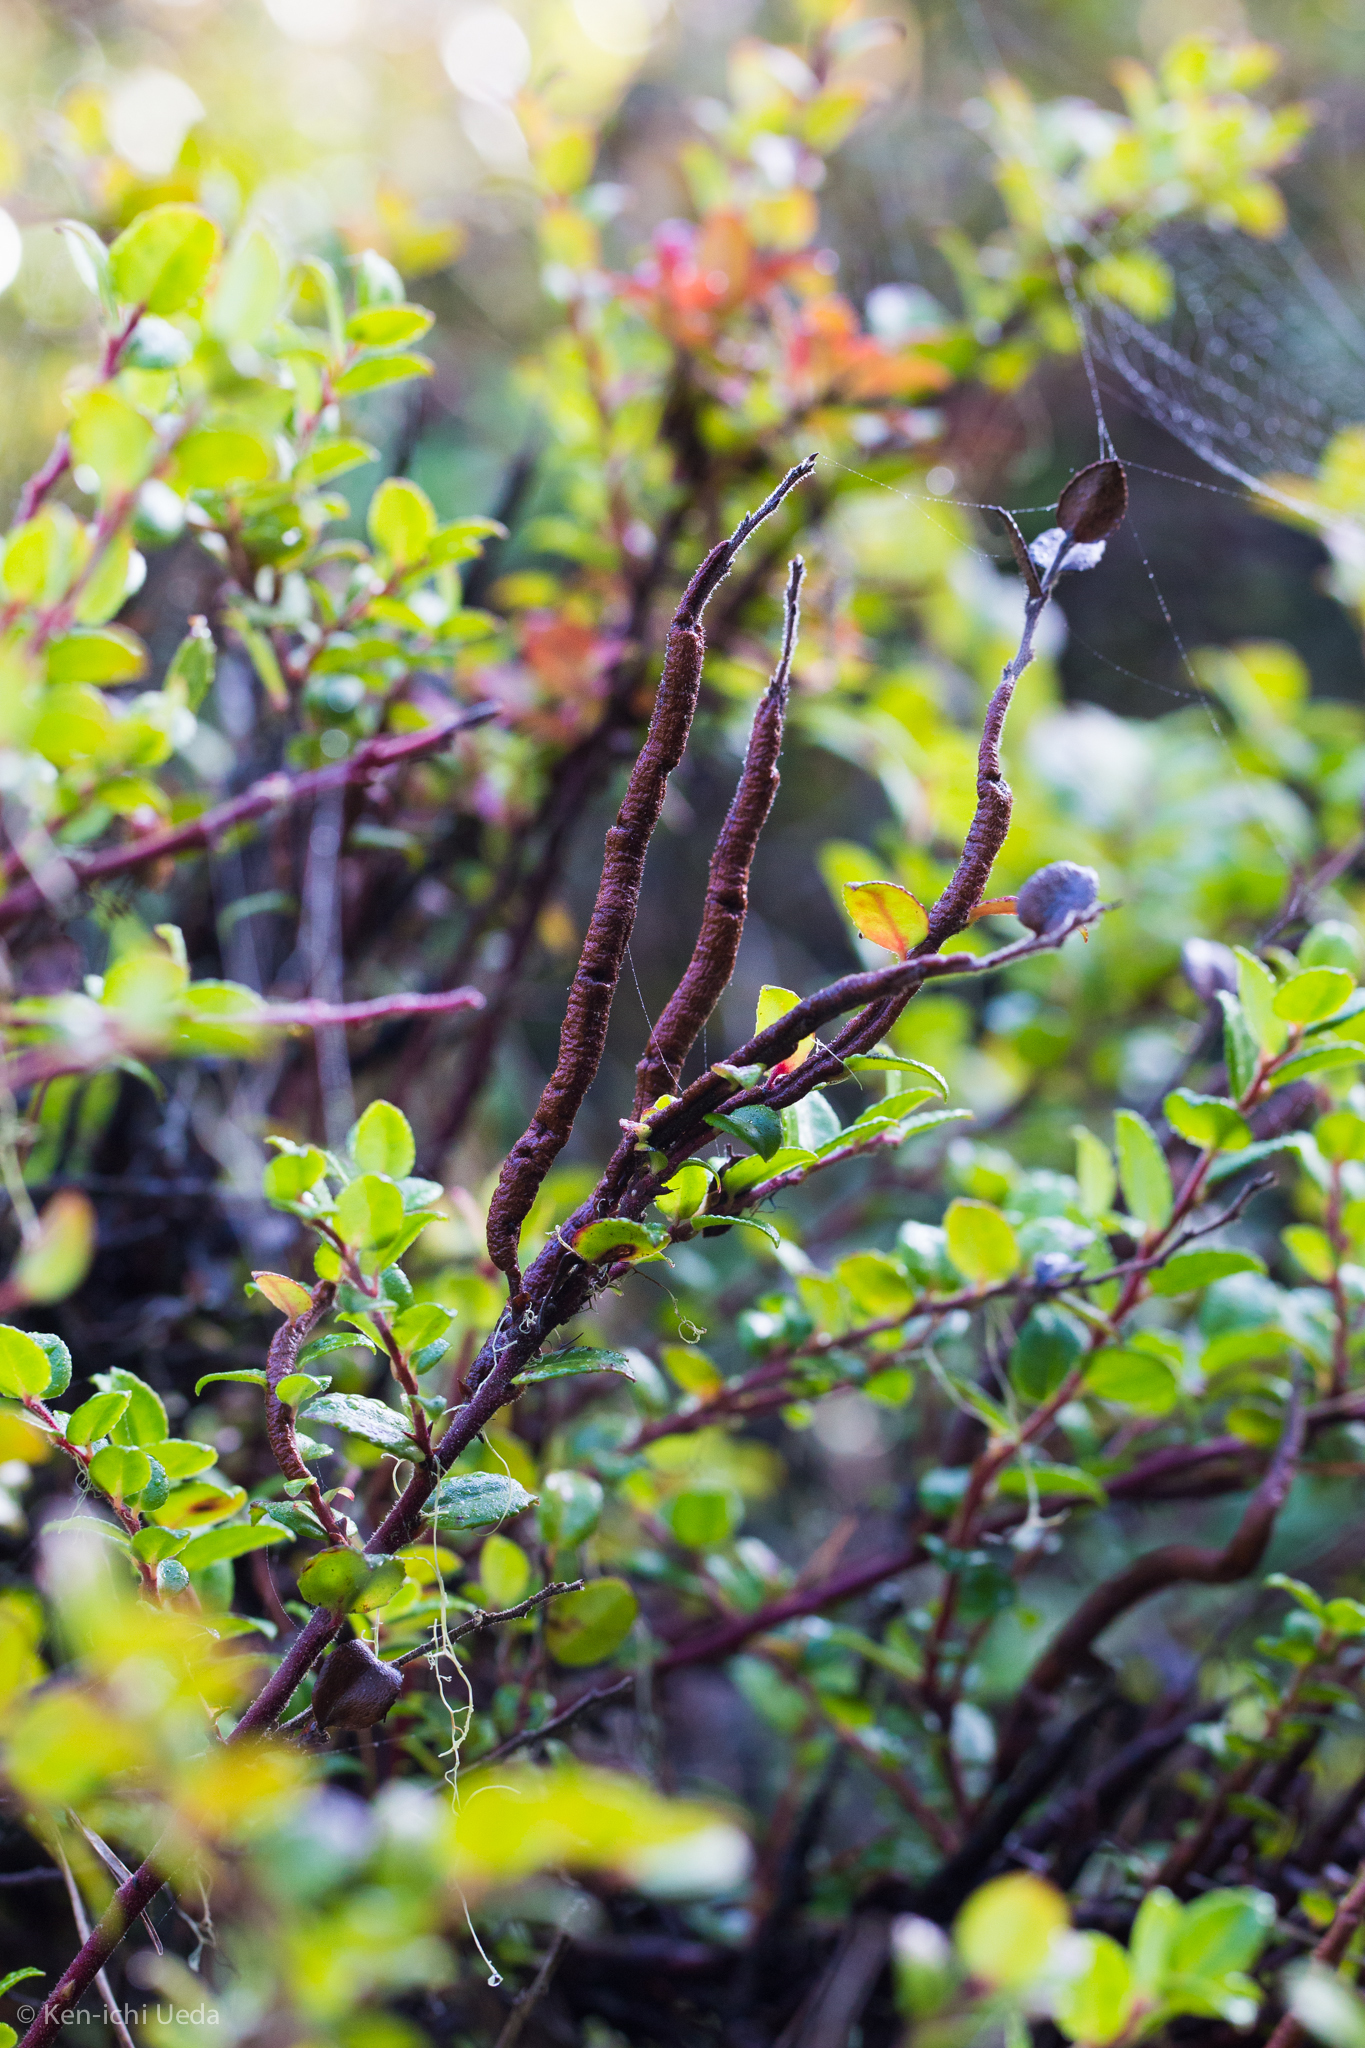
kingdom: Fungi
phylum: Basidiomycota
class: Pucciniomycetes
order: Pucciniales
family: Pucciniastraceae
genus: Calyptospora
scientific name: Calyptospora
